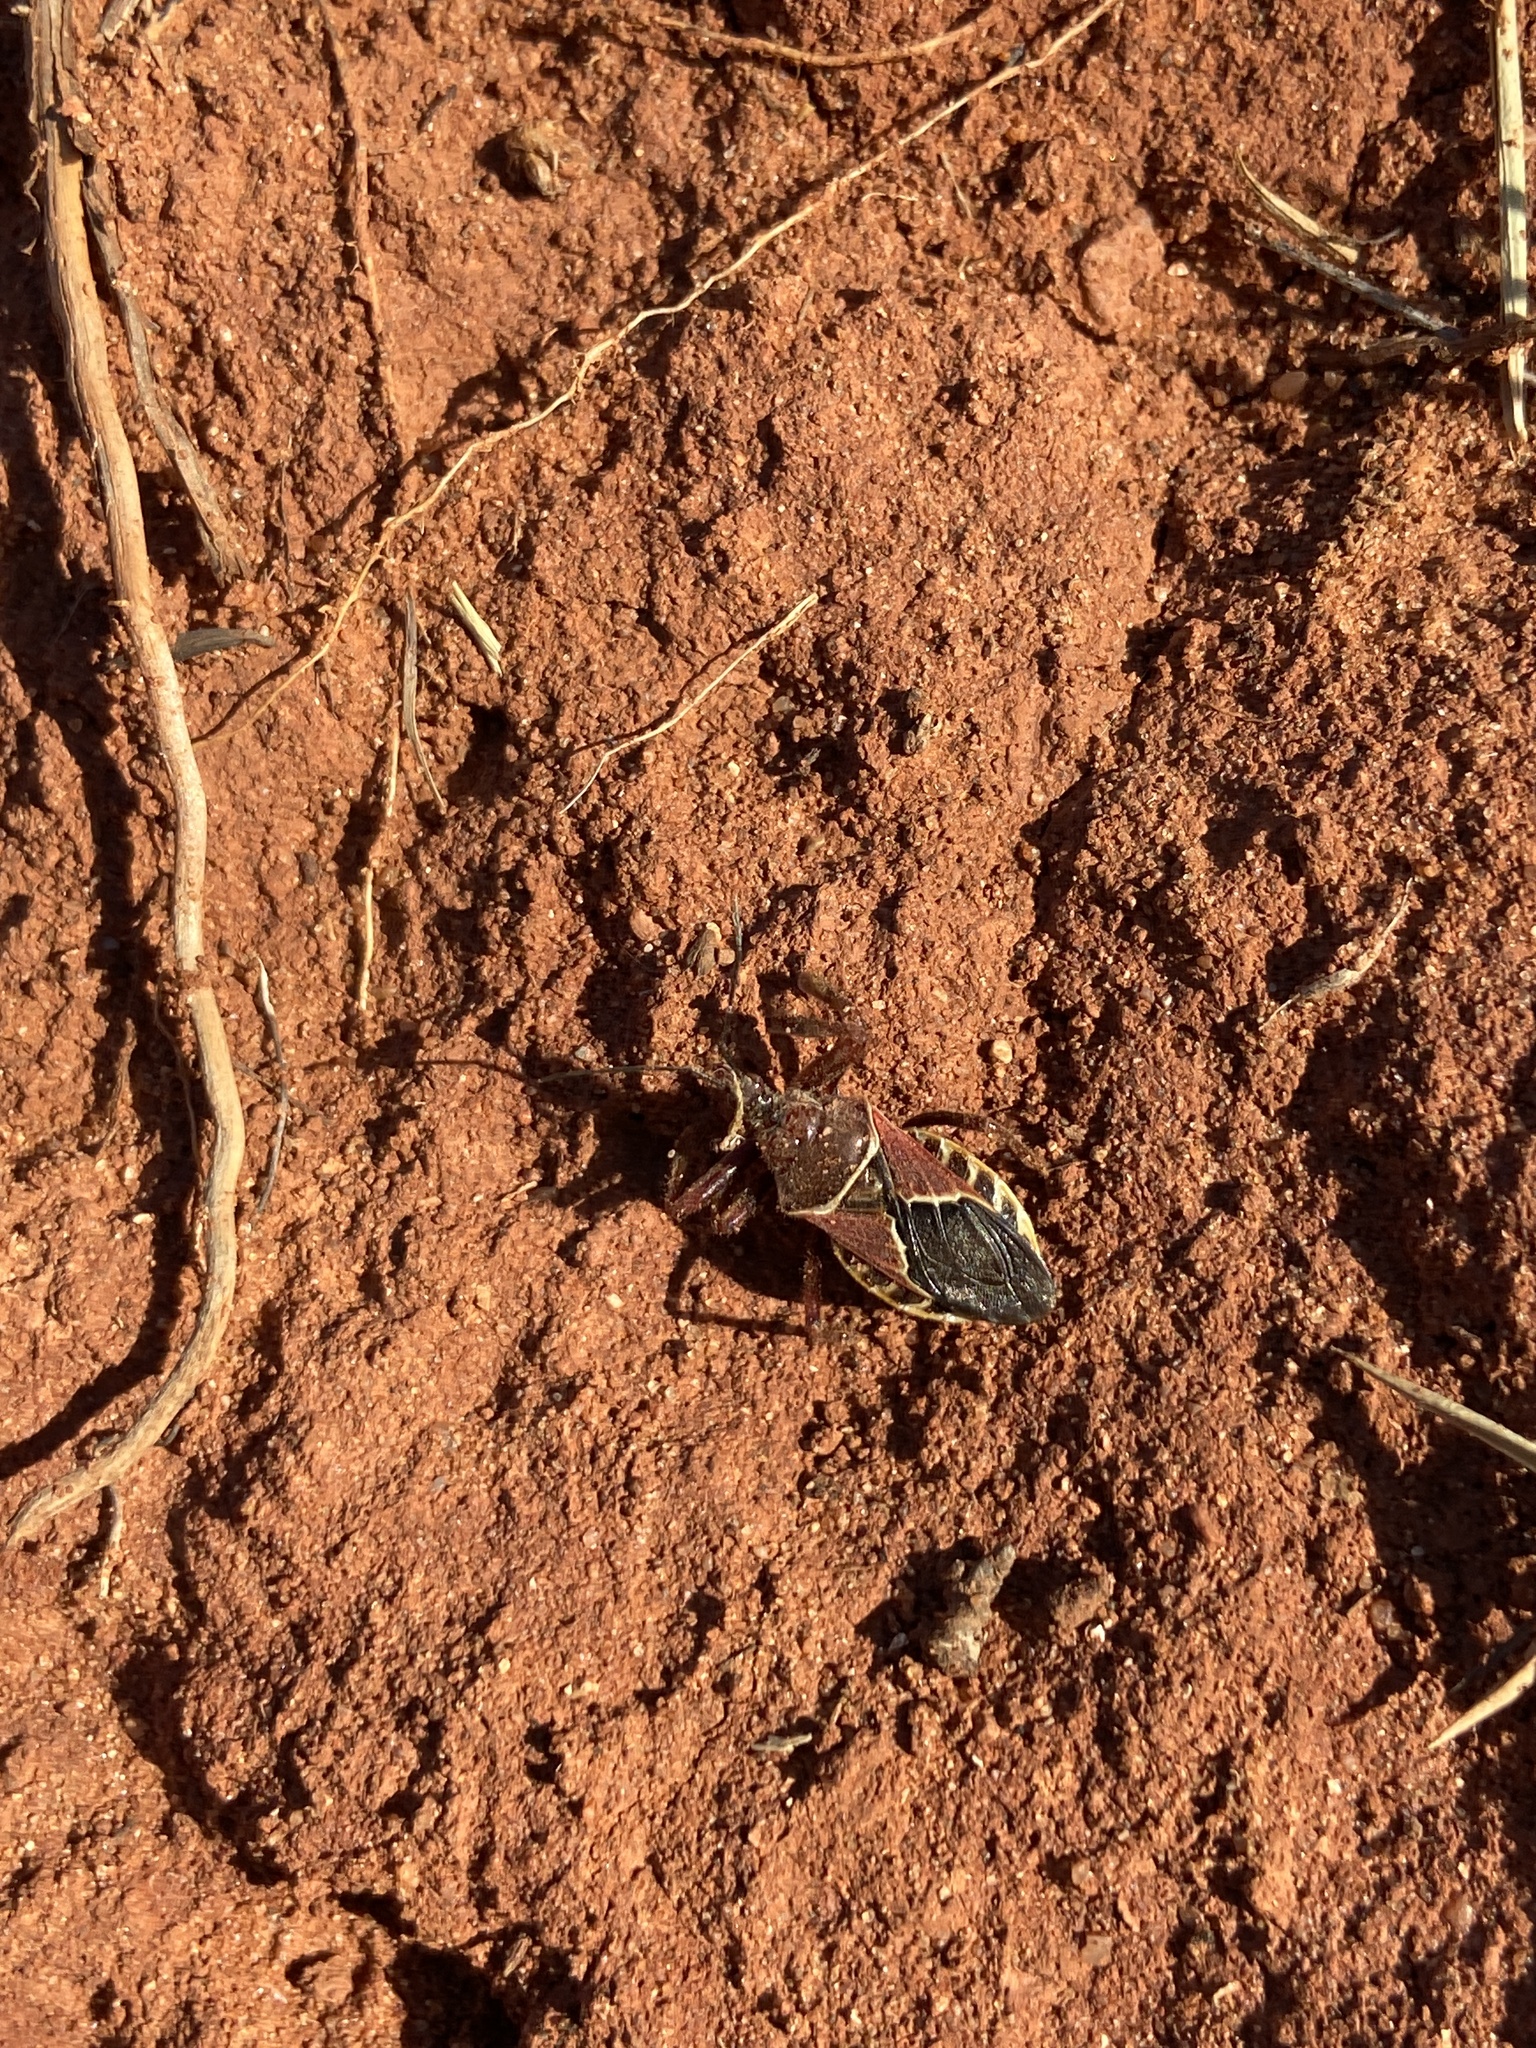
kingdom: Animalia
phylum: Arthropoda
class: Insecta
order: Hemiptera
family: Reduviidae
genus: Apiomerus
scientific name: Apiomerus spissipes
